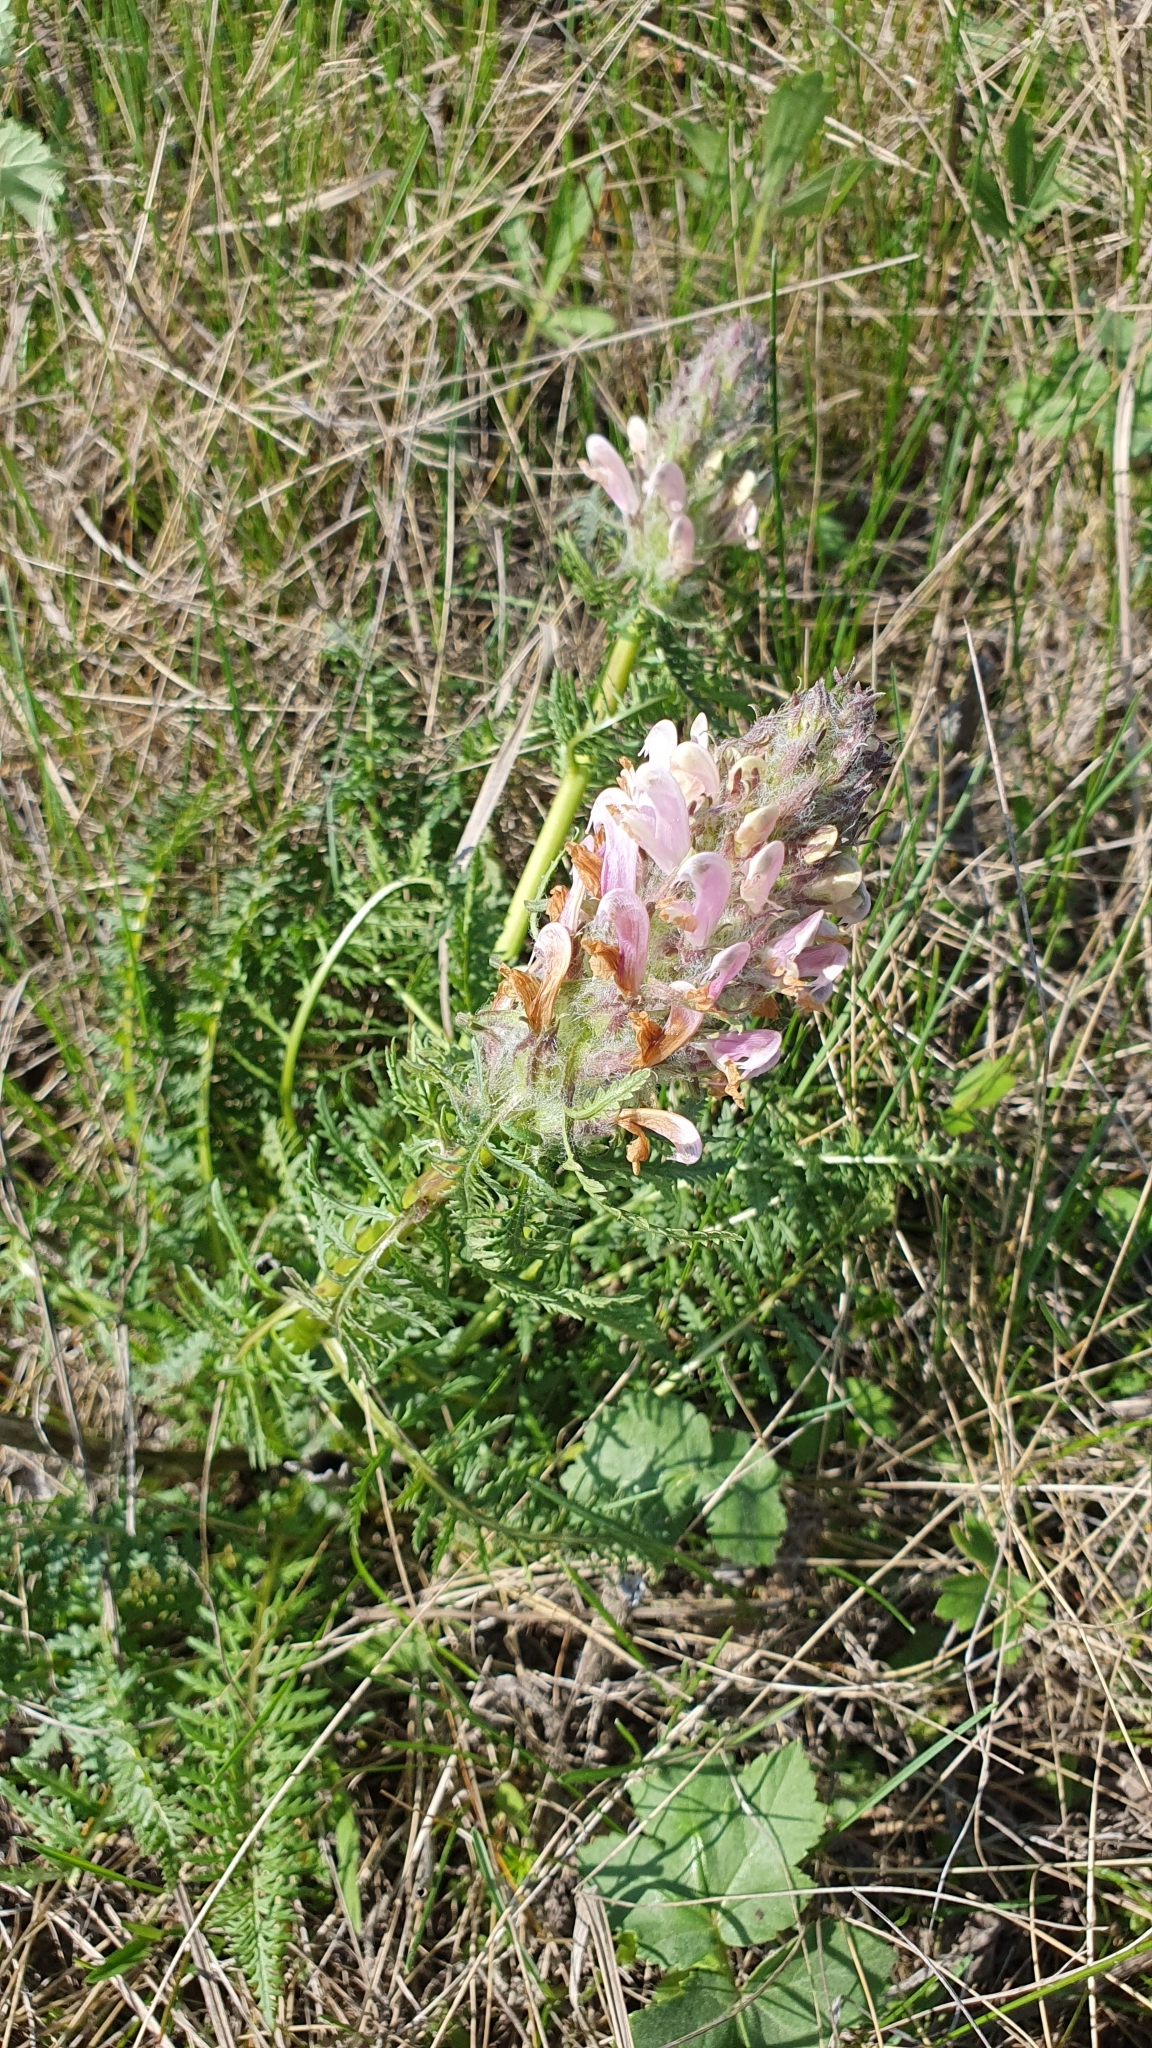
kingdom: Plantae
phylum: Tracheophyta
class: Magnoliopsida
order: Lamiales
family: Orobanchaceae
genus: Pedicularis
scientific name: Pedicularis dasystachys
